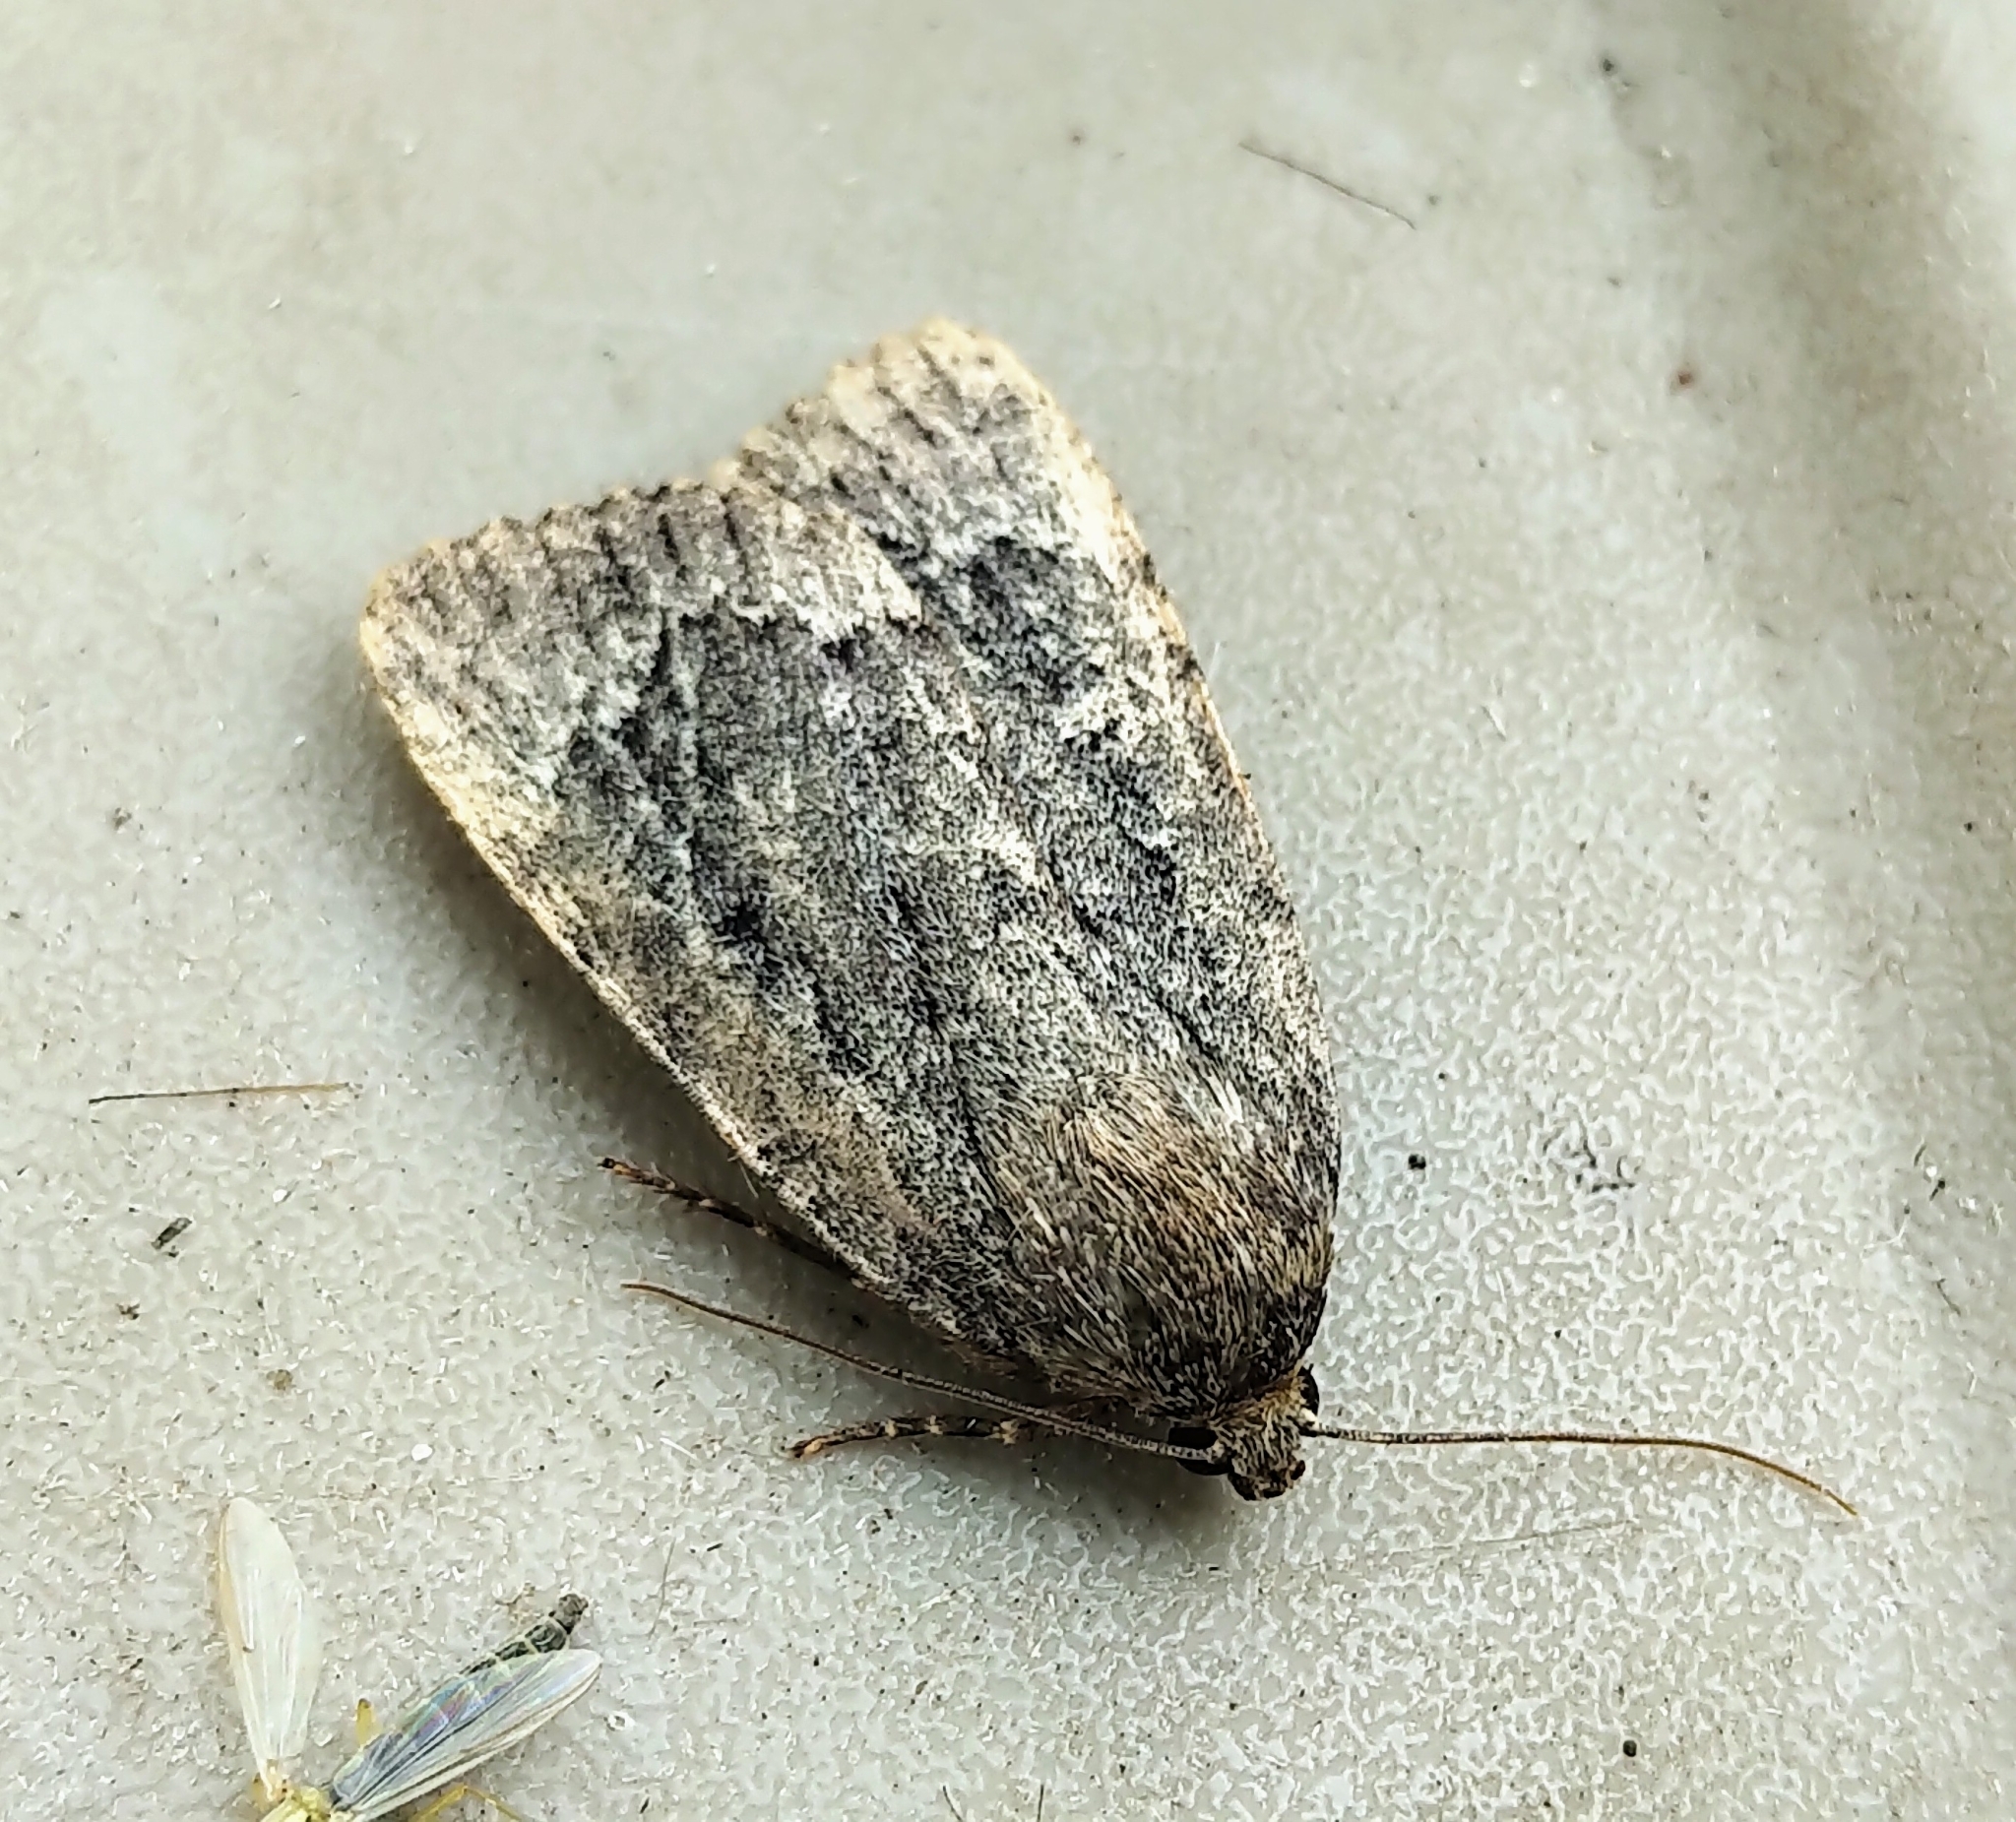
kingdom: Animalia
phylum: Arthropoda
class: Insecta
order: Lepidoptera
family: Noctuidae
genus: Amphipyra
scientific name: Amphipyra pyramidoides
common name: American copper underwing
